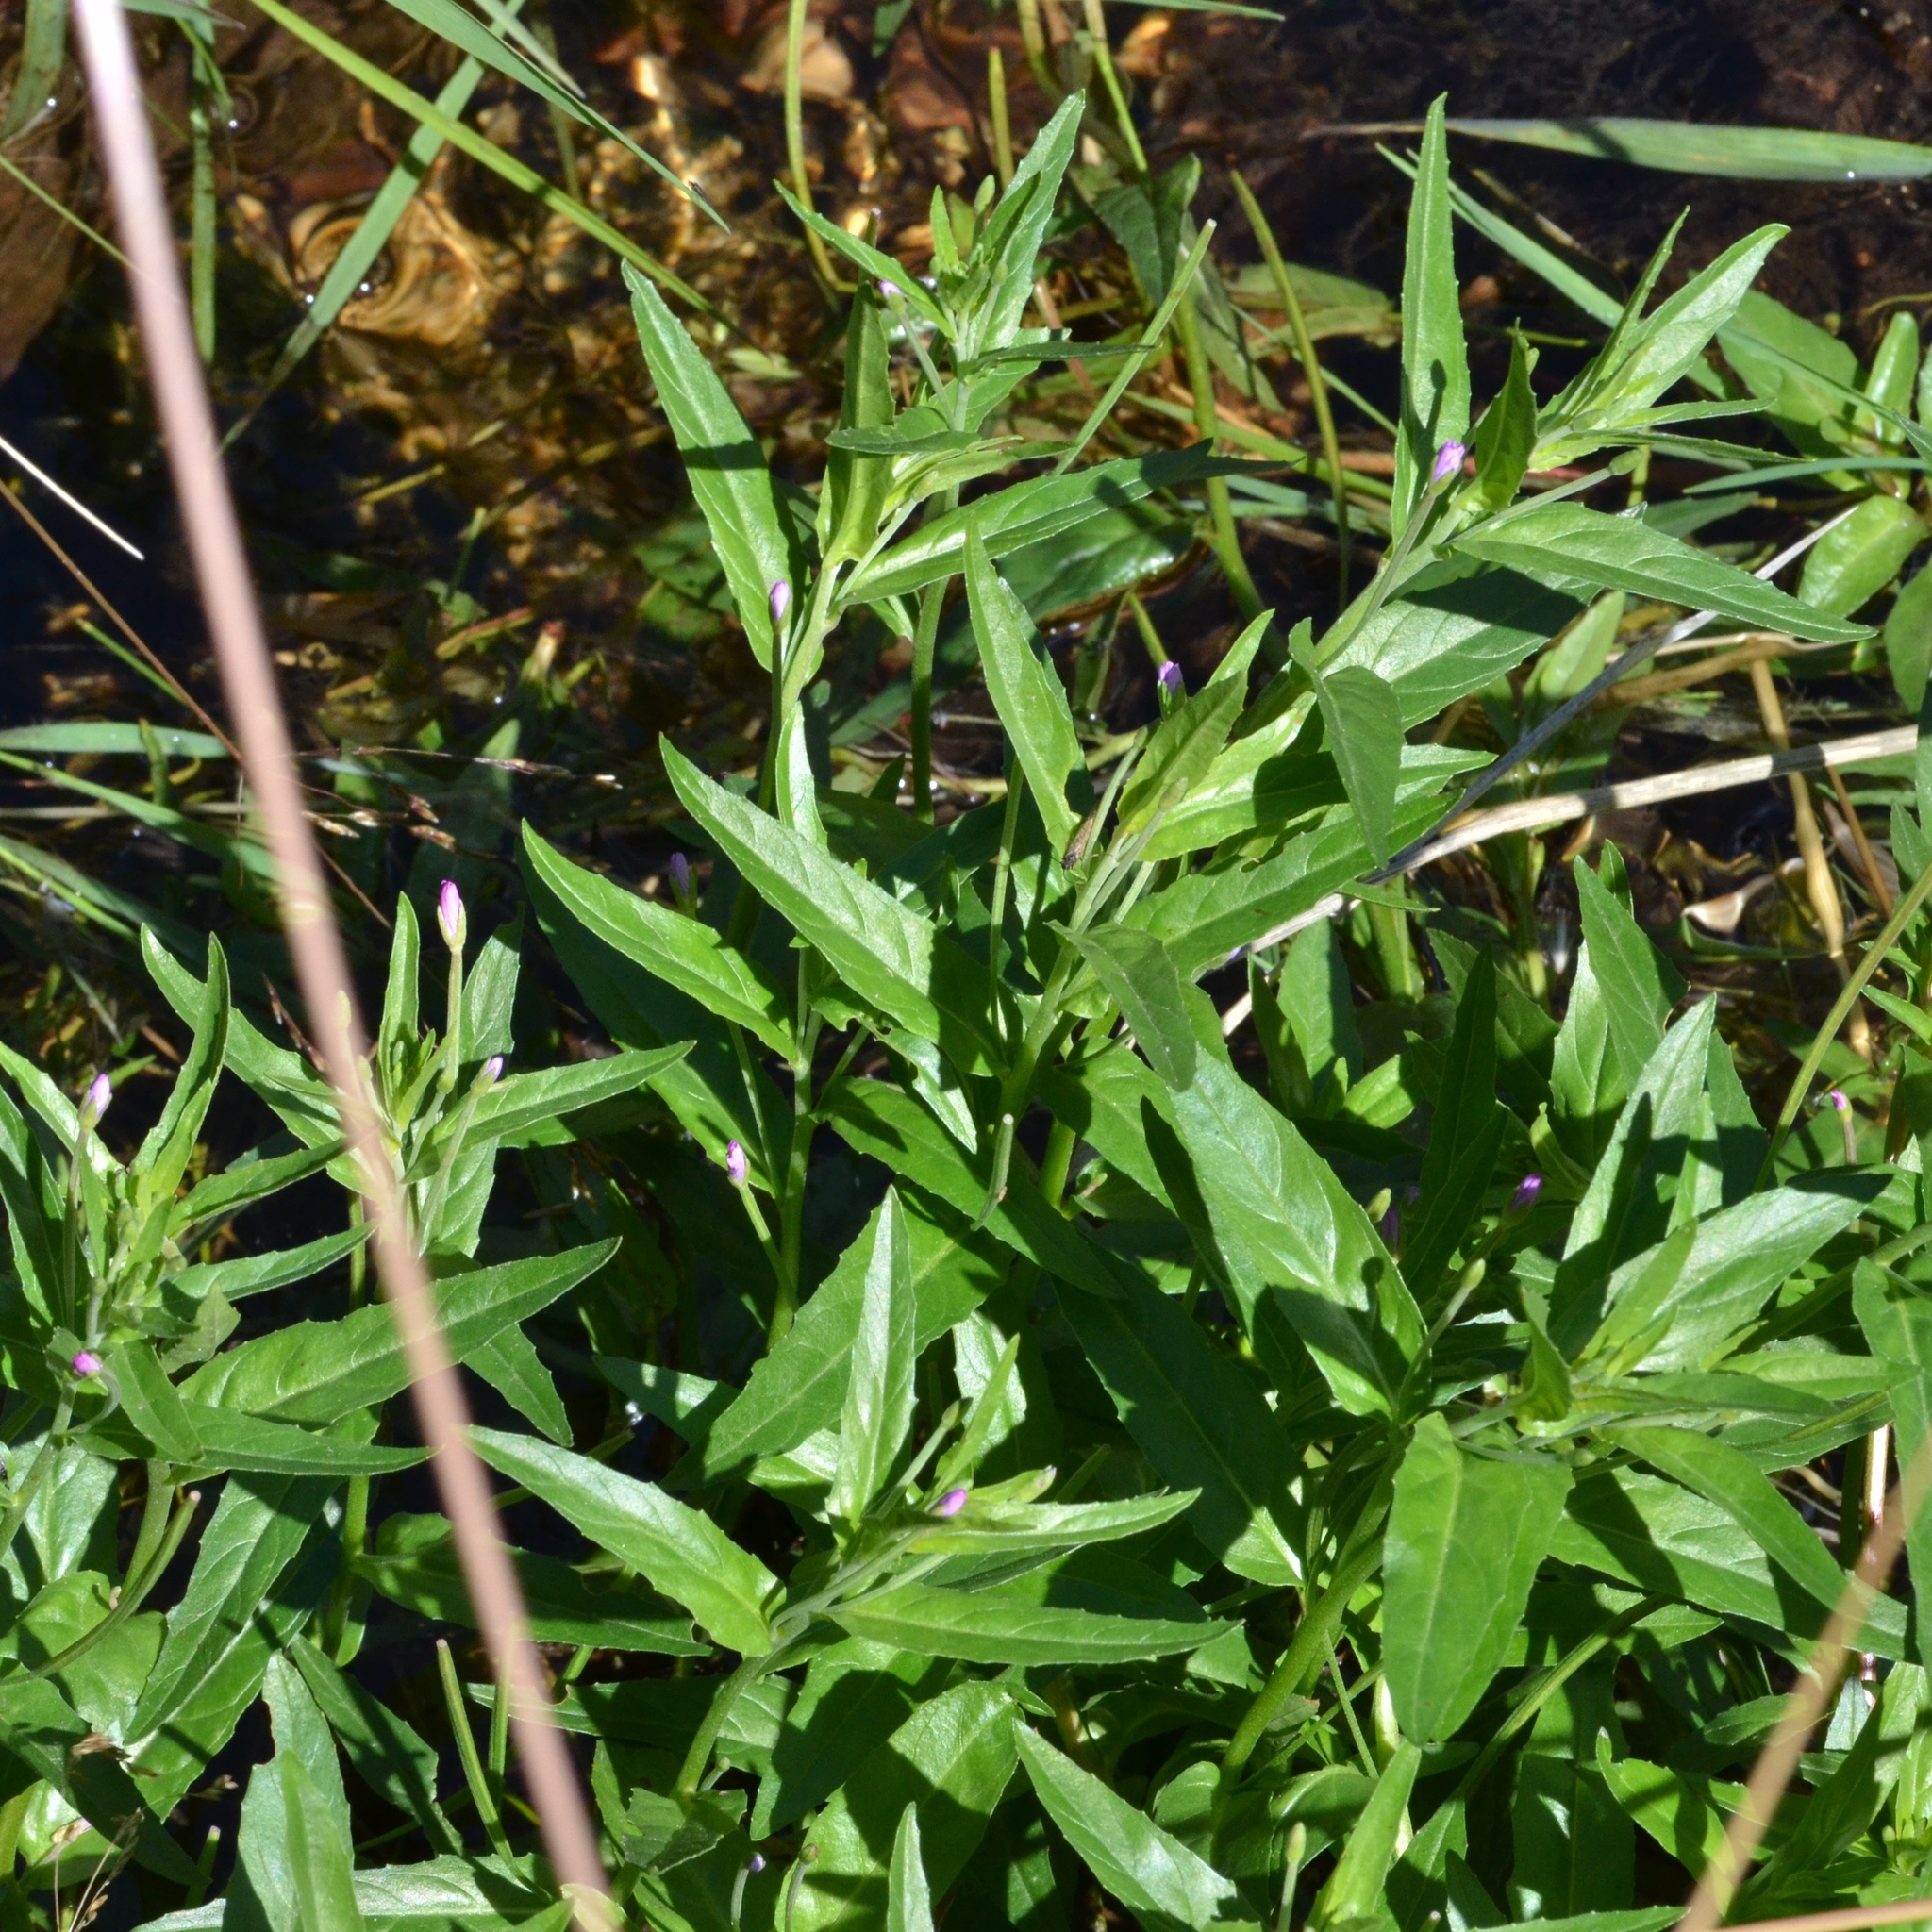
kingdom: Plantae
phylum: Tracheophyta
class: Magnoliopsida
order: Myrtales
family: Onagraceae
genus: Epilobium
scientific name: Epilobium obscurum
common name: Short-fruited willowherb
